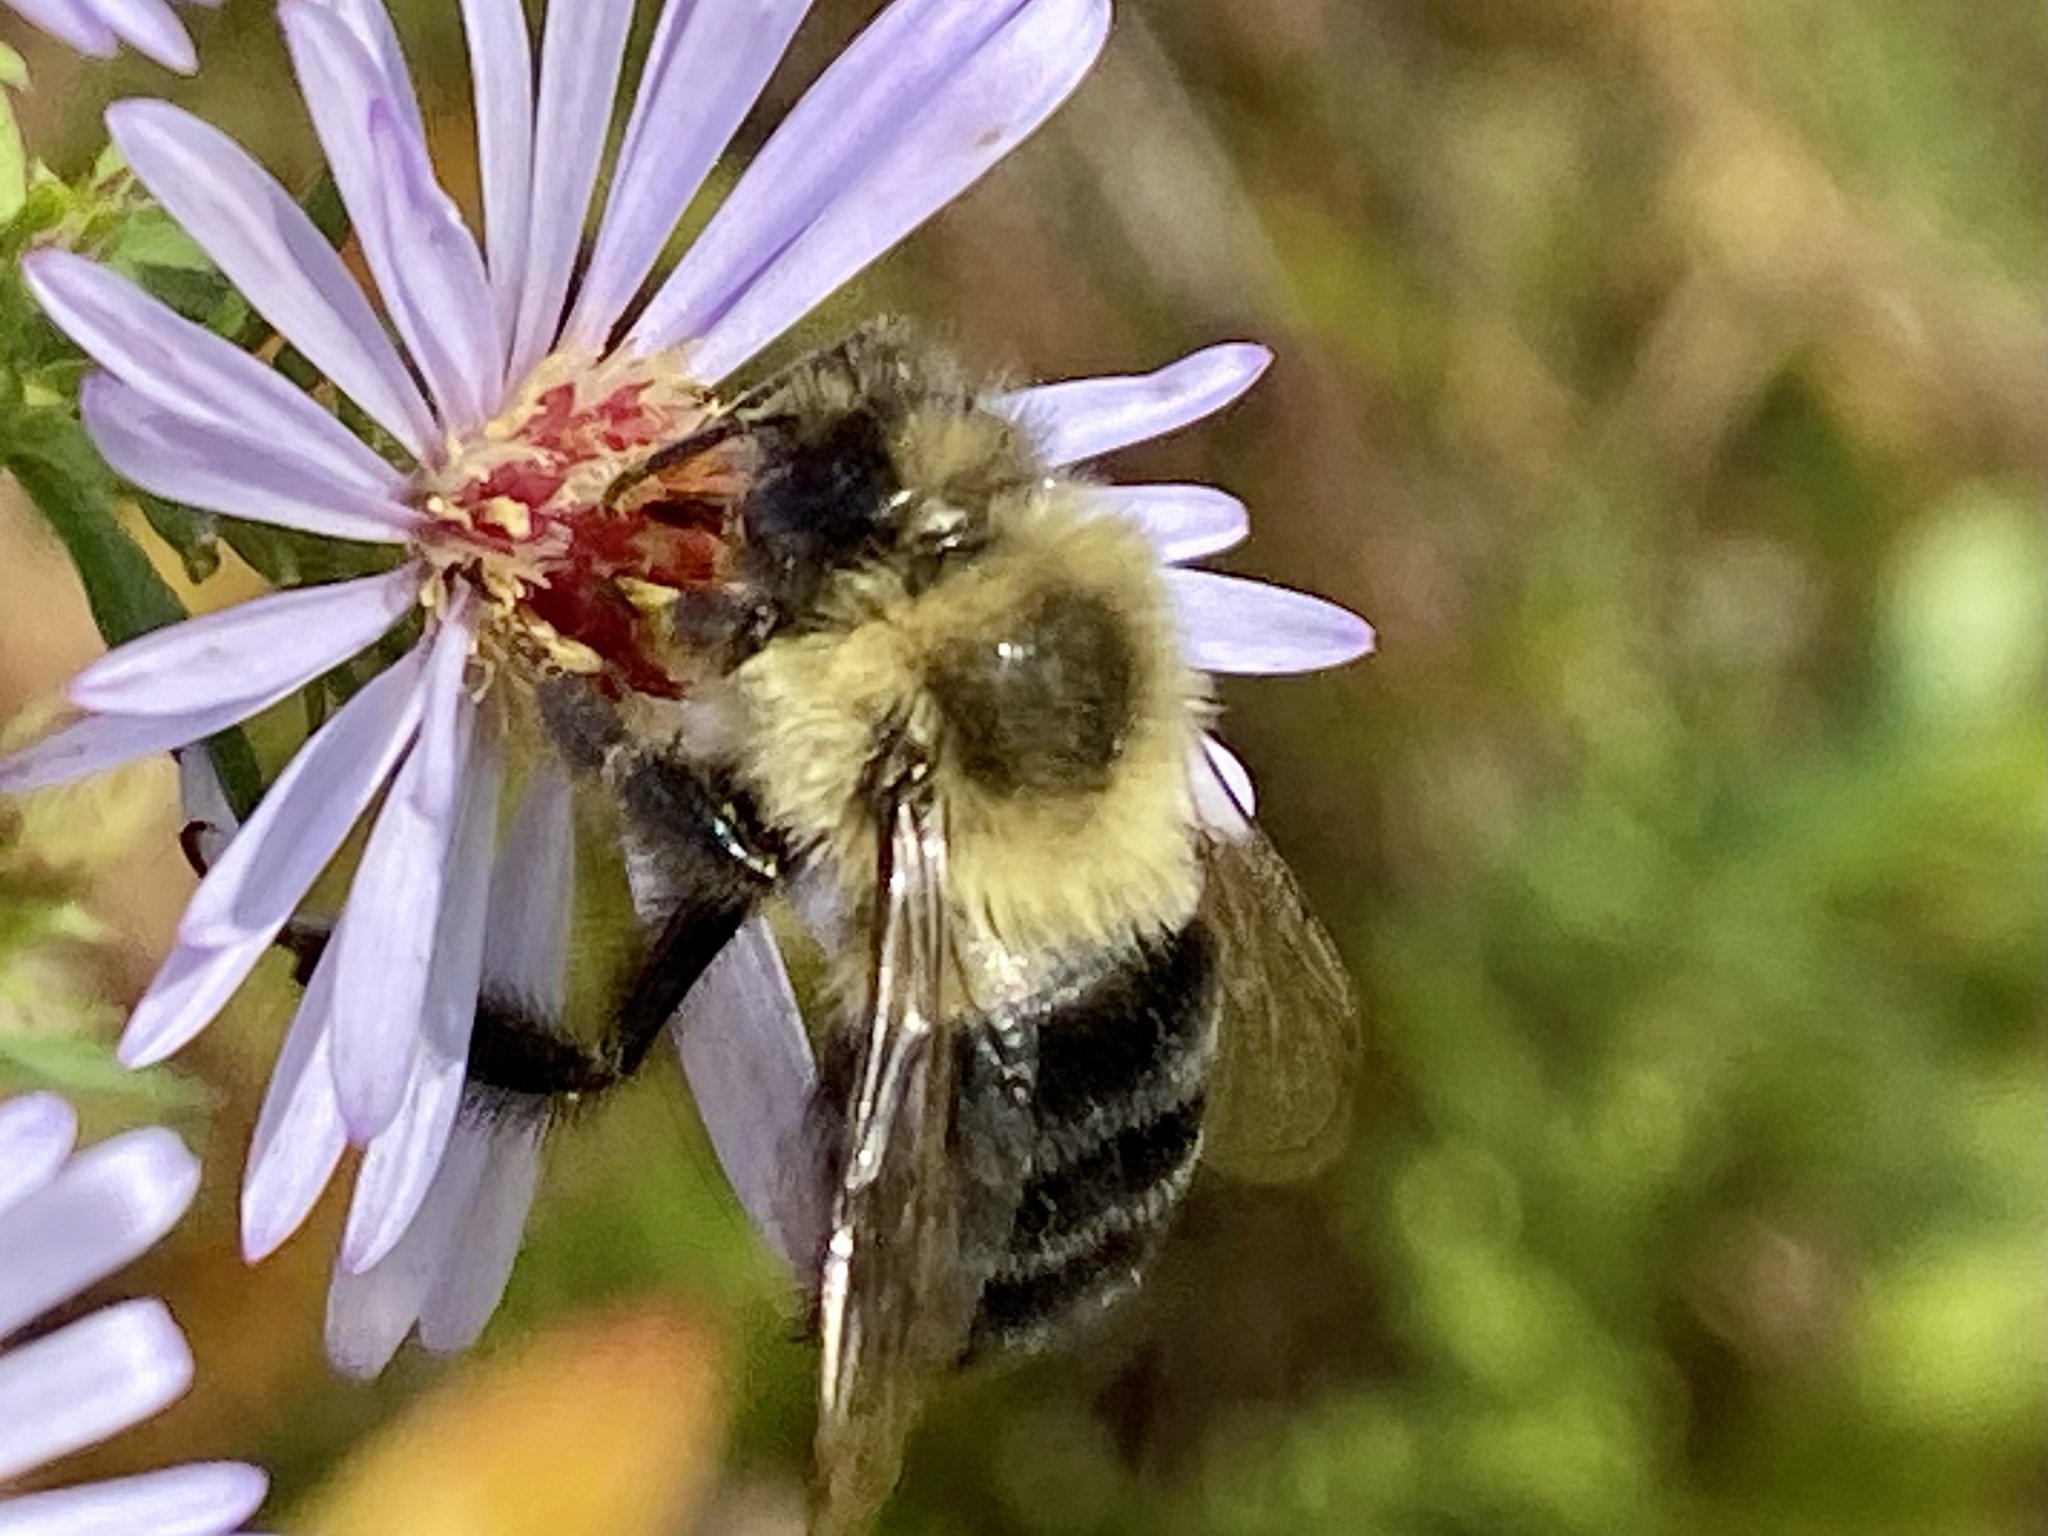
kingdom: Animalia
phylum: Arthropoda
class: Insecta
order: Hymenoptera
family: Apidae
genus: Bombus
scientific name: Bombus impatiens
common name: Common eastern bumble bee
